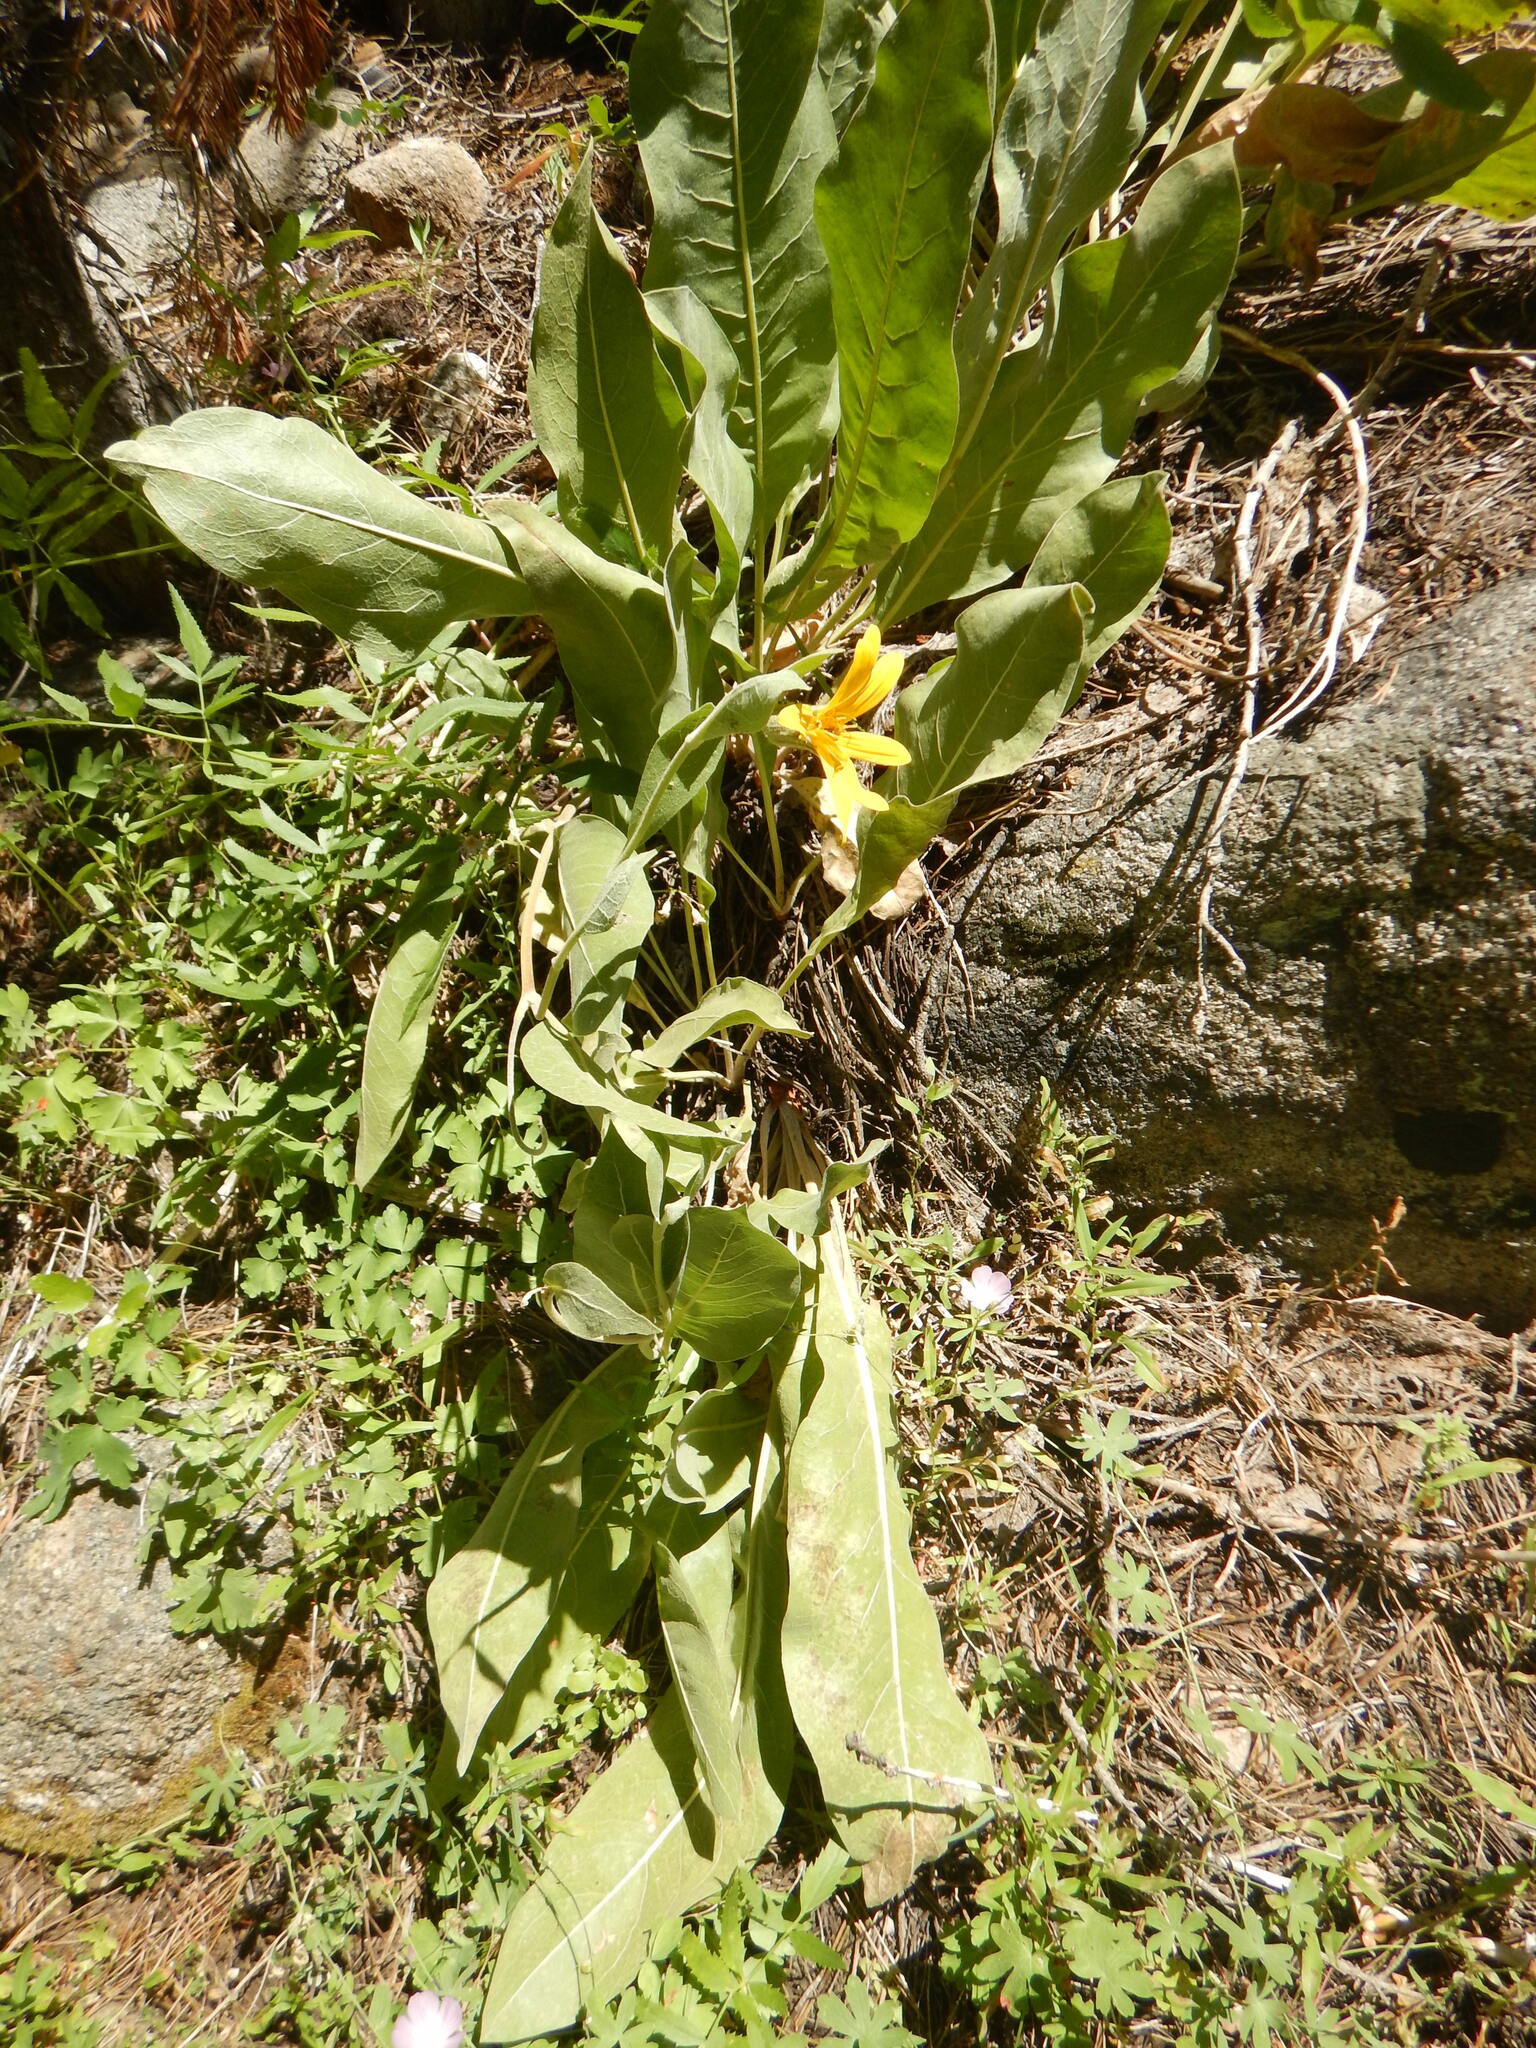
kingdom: Plantae
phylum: Tracheophyta
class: Magnoliopsida
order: Asterales
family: Asteraceae
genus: Wyethia
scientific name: Wyethia mollis
